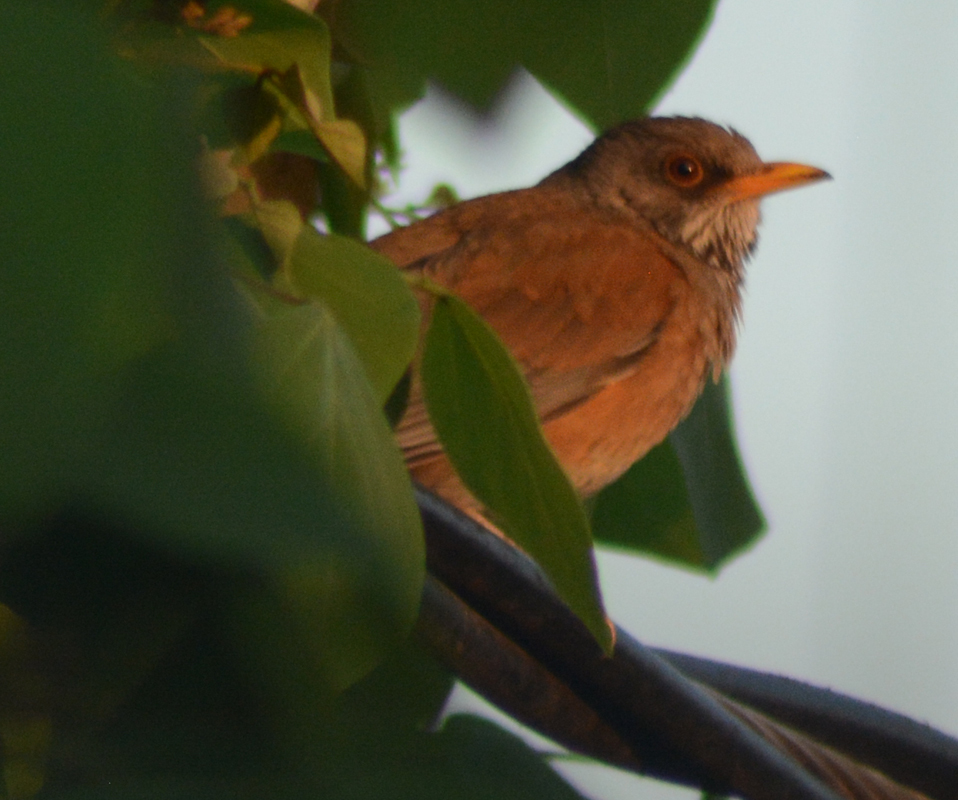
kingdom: Animalia
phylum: Chordata
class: Aves
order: Passeriformes
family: Turdidae
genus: Turdus
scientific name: Turdus rufopalliatus
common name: Rufous-backed robin
